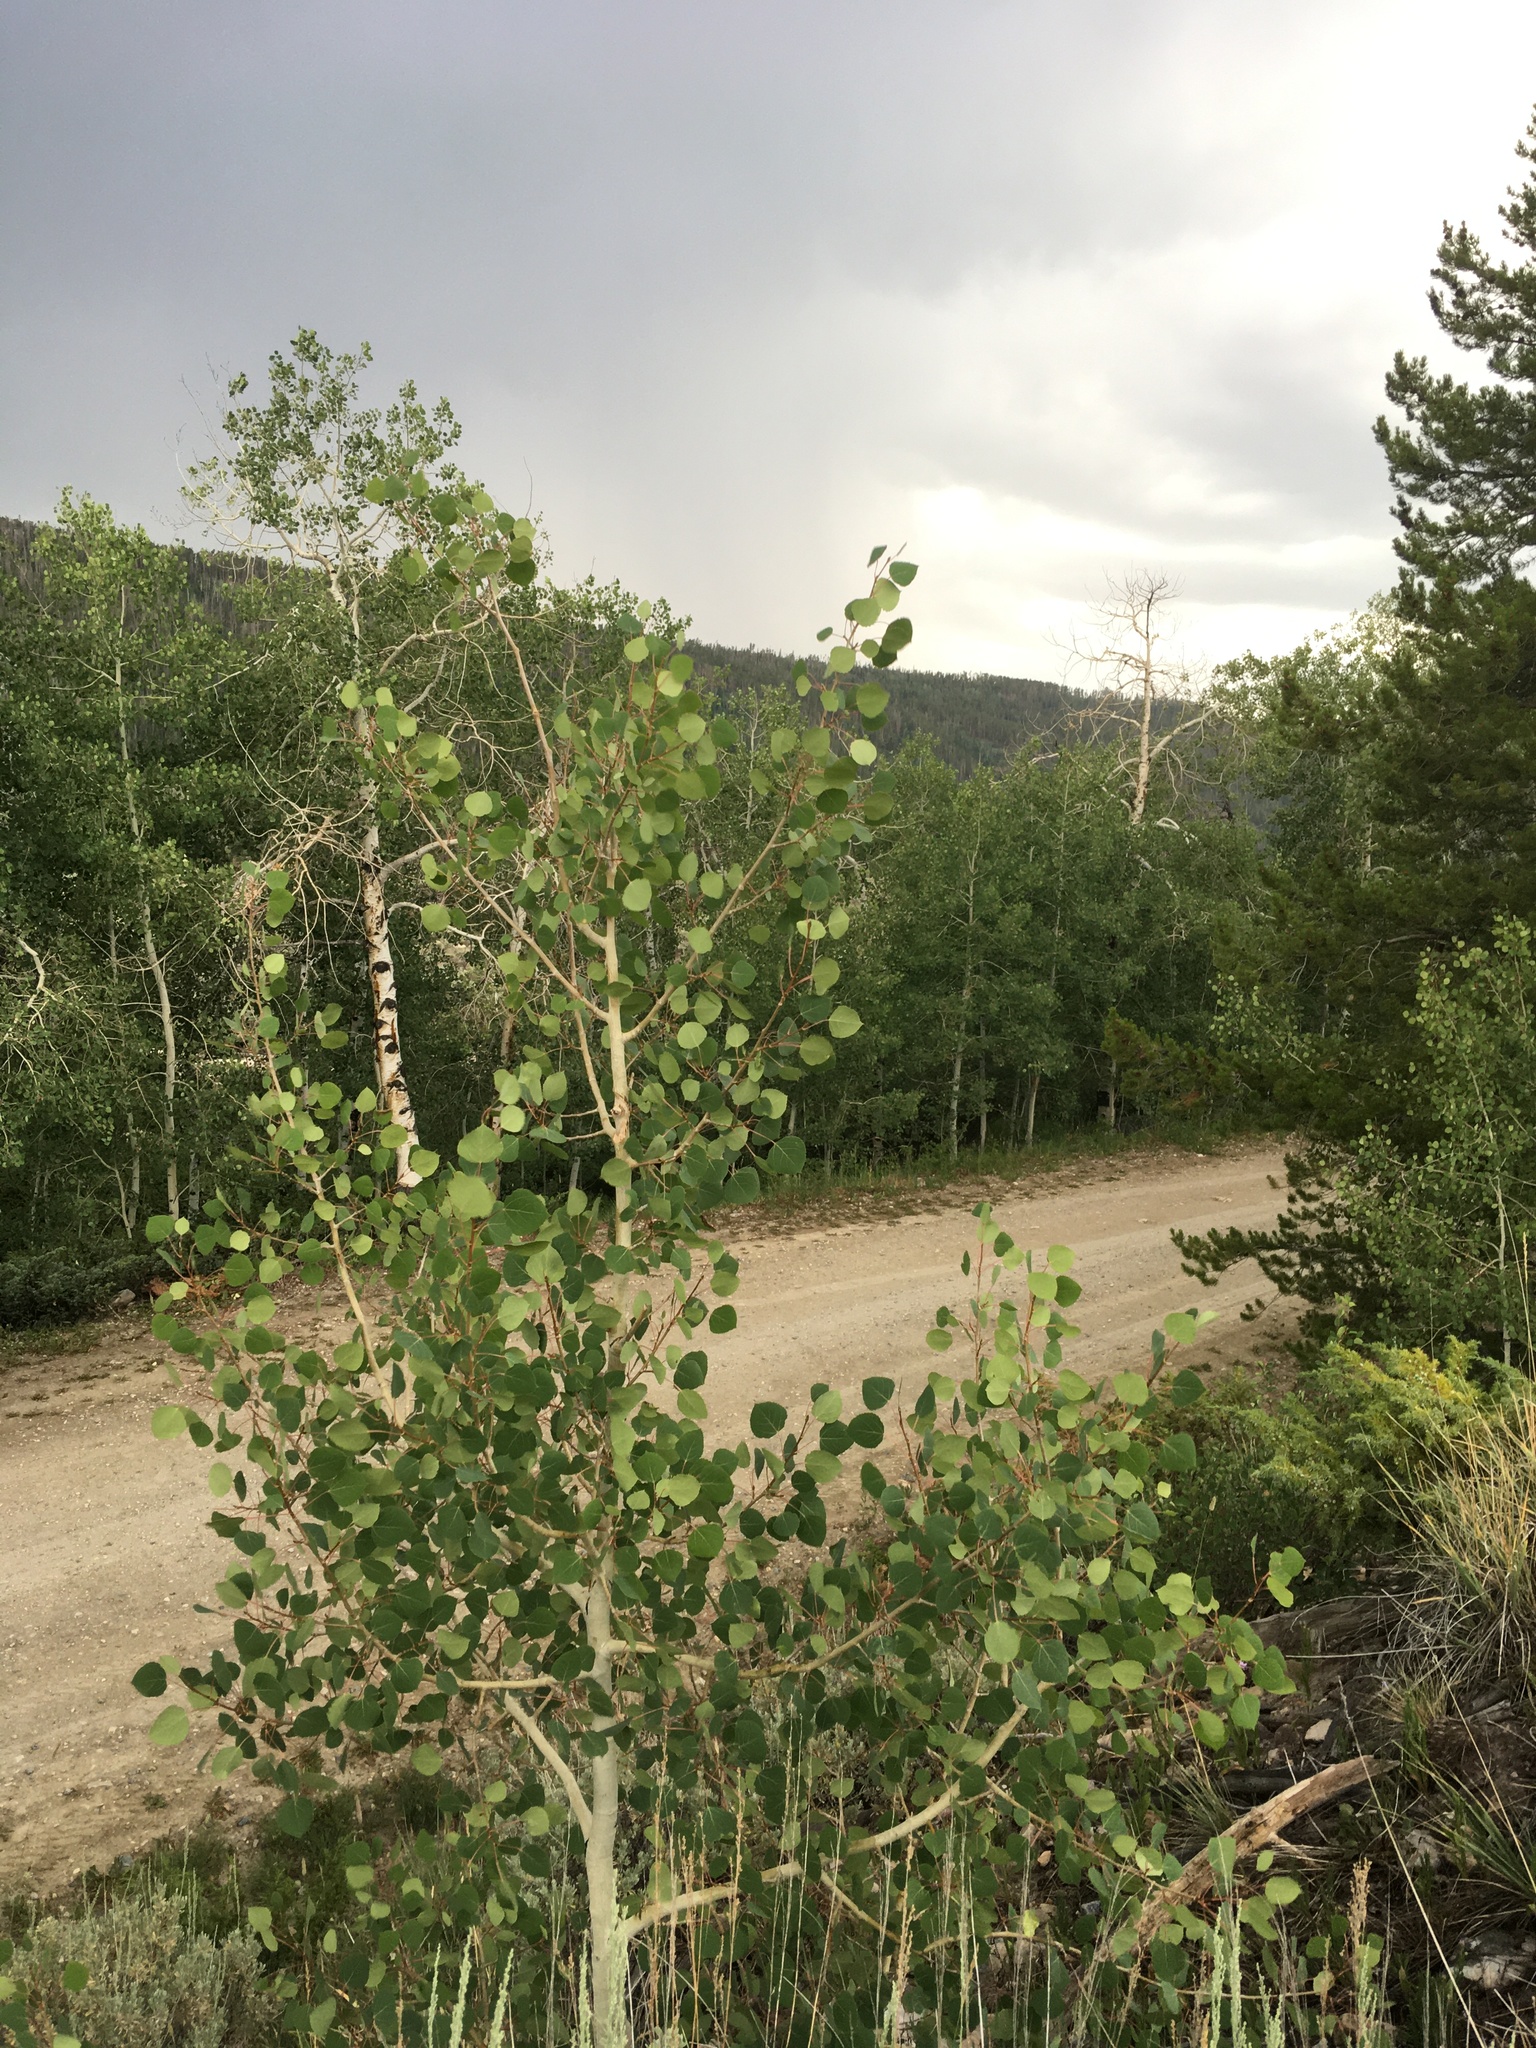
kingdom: Plantae
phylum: Tracheophyta
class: Magnoliopsida
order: Malpighiales
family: Salicaceae
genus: Populus
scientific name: Populus tremuloides
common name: Quaking aspen
